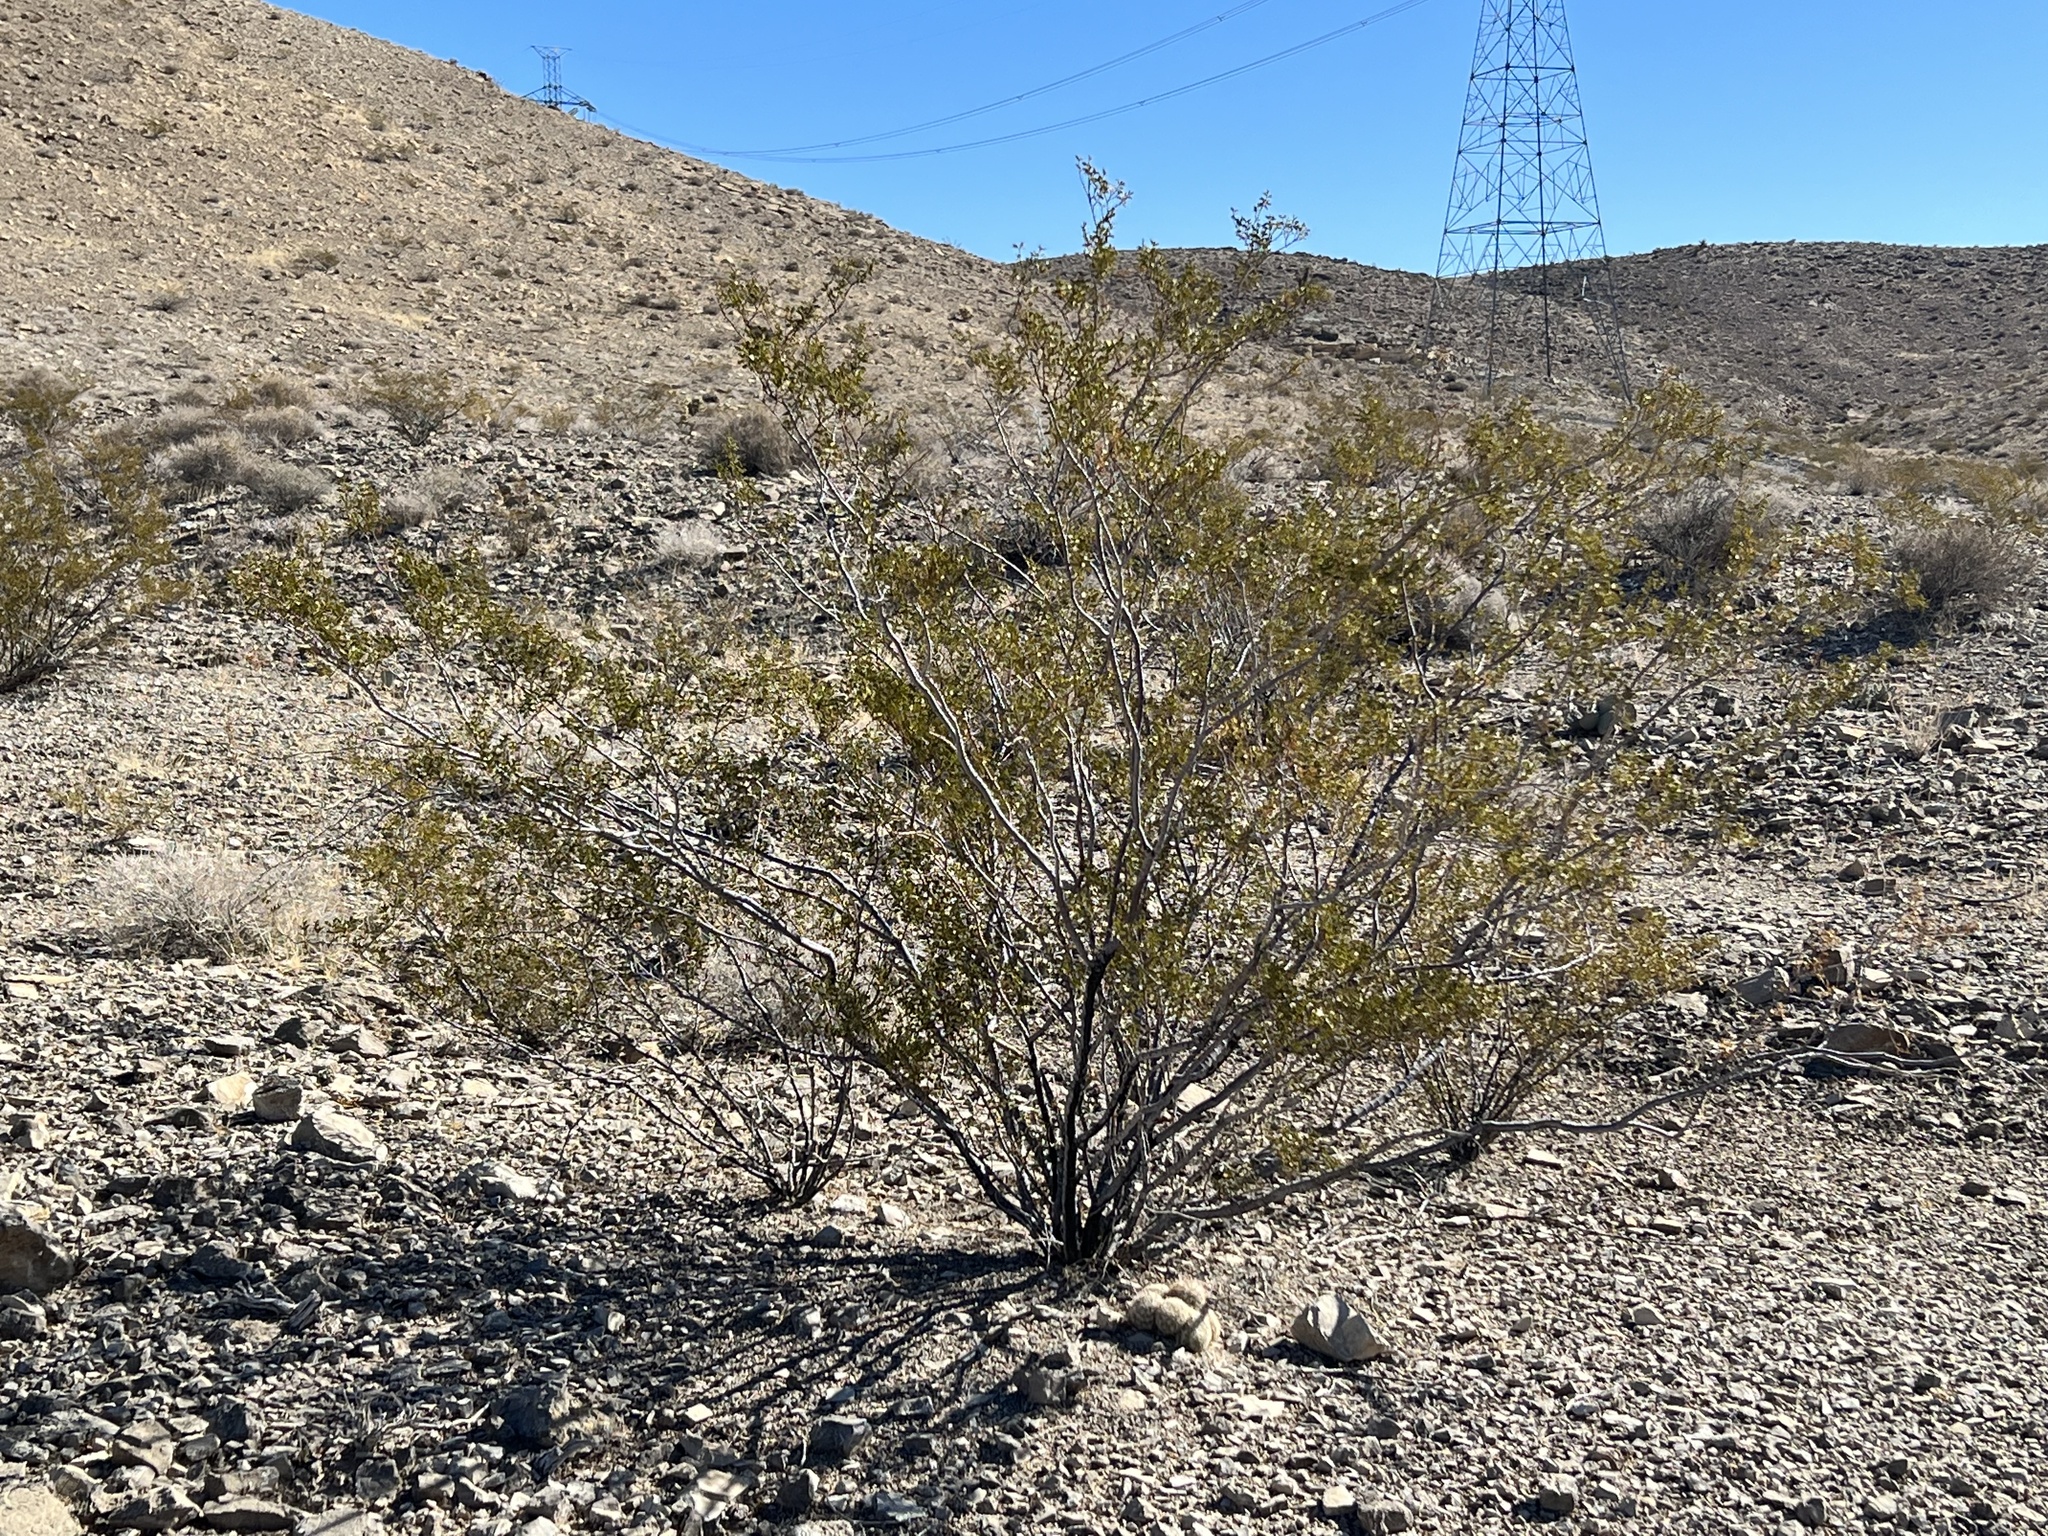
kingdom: Plantae
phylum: Tracheophyta
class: Magnoliopsida
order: Zygophyllales
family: Zygophyllaceae
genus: Larrea
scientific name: Larrea tridentata
